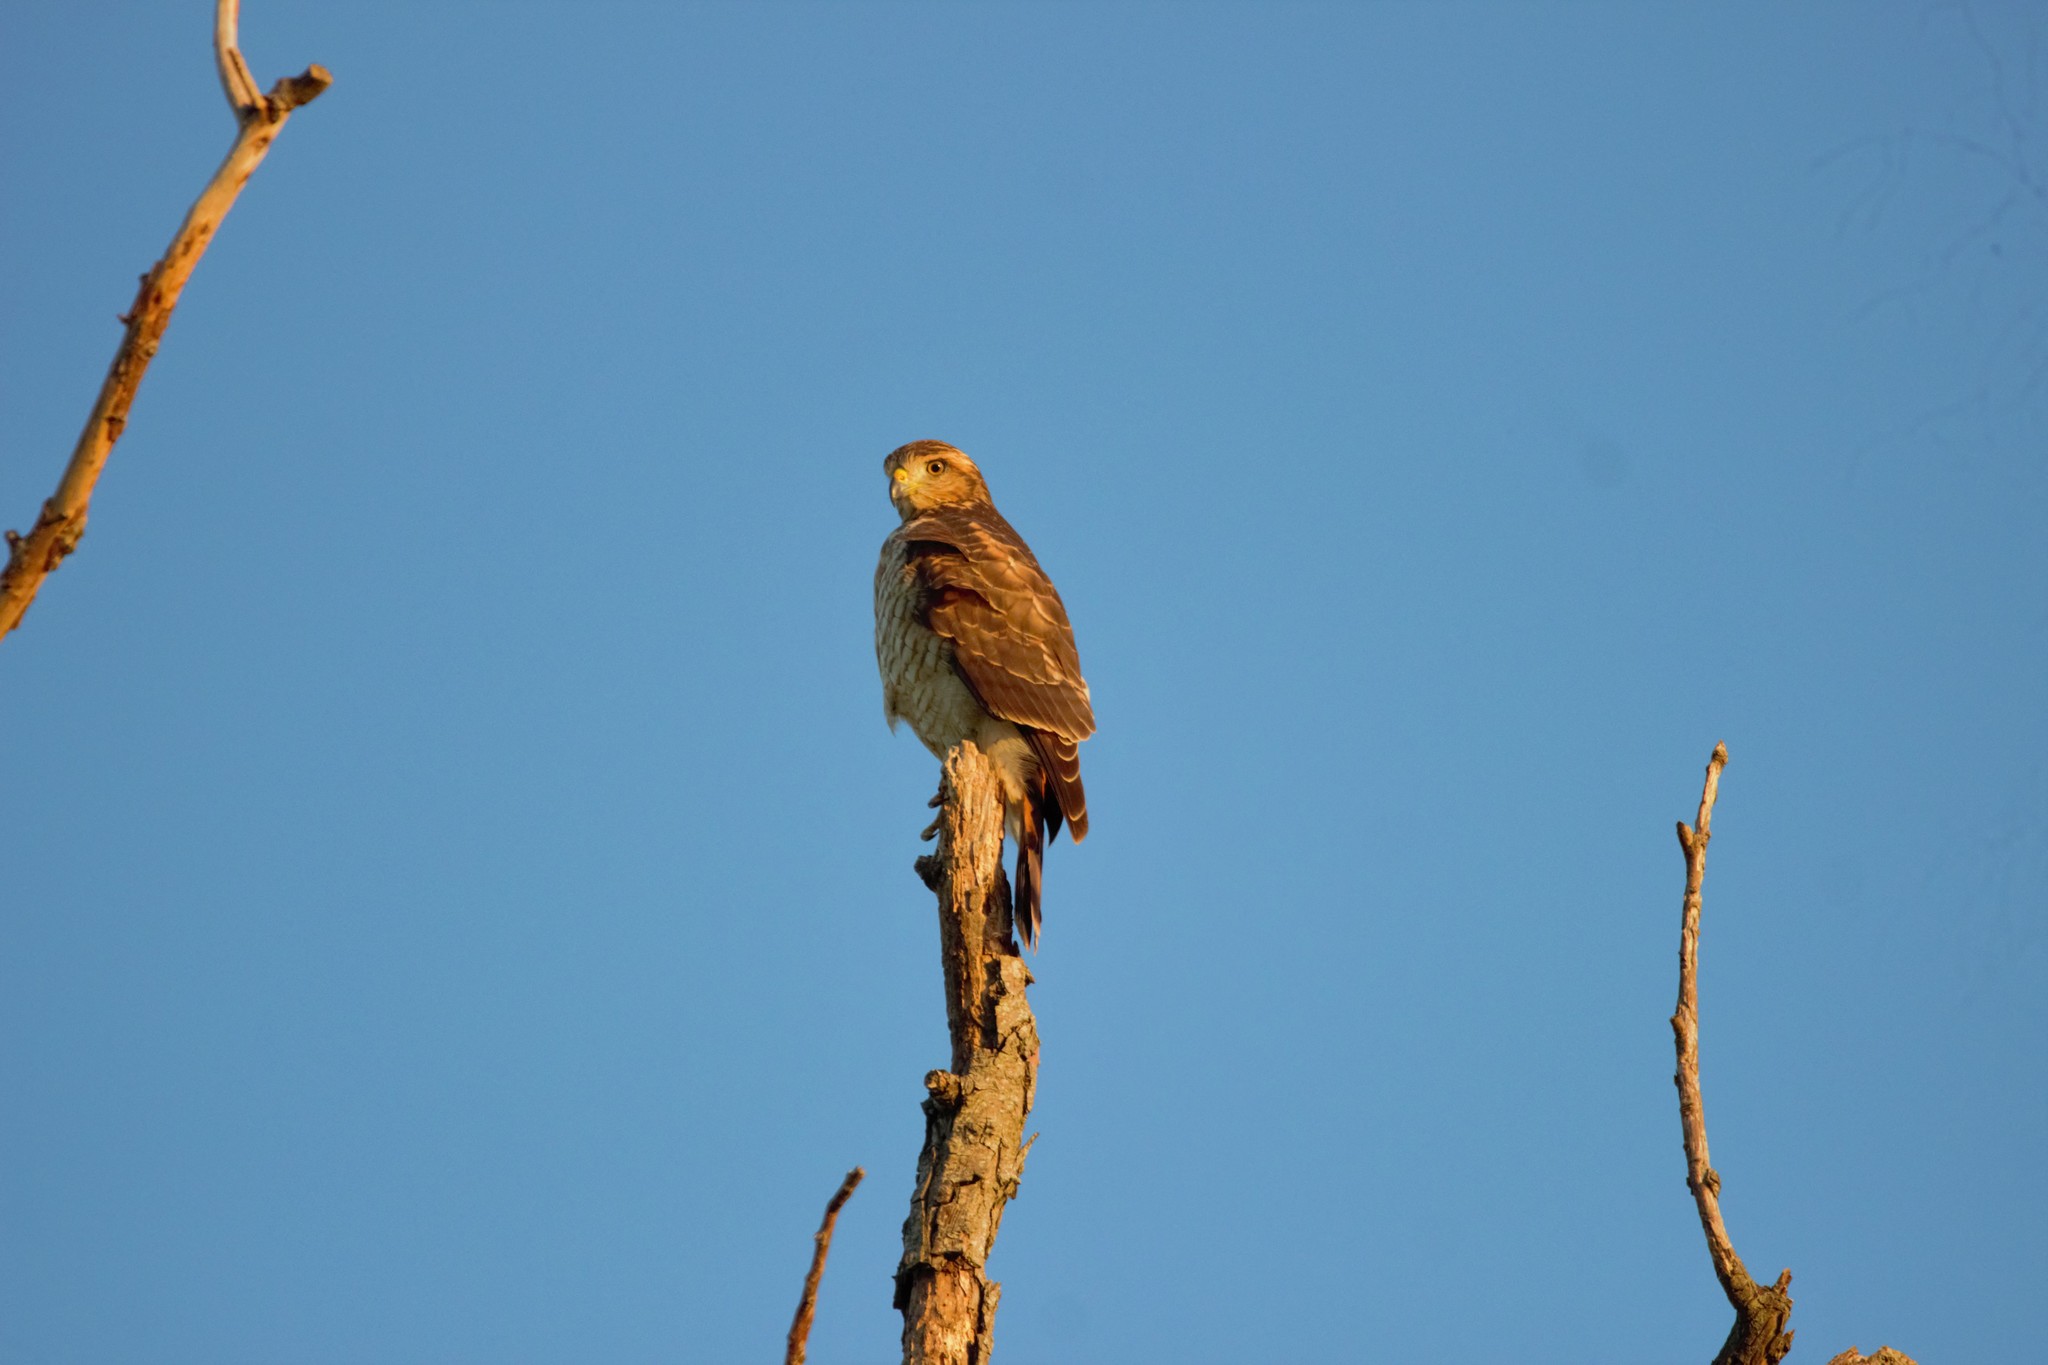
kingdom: Animalia
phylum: Chordata
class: Aves
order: Accipitriformes
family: Accipitridae
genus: Rupornis
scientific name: Rupornis magnirostris
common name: Roadside hawk
